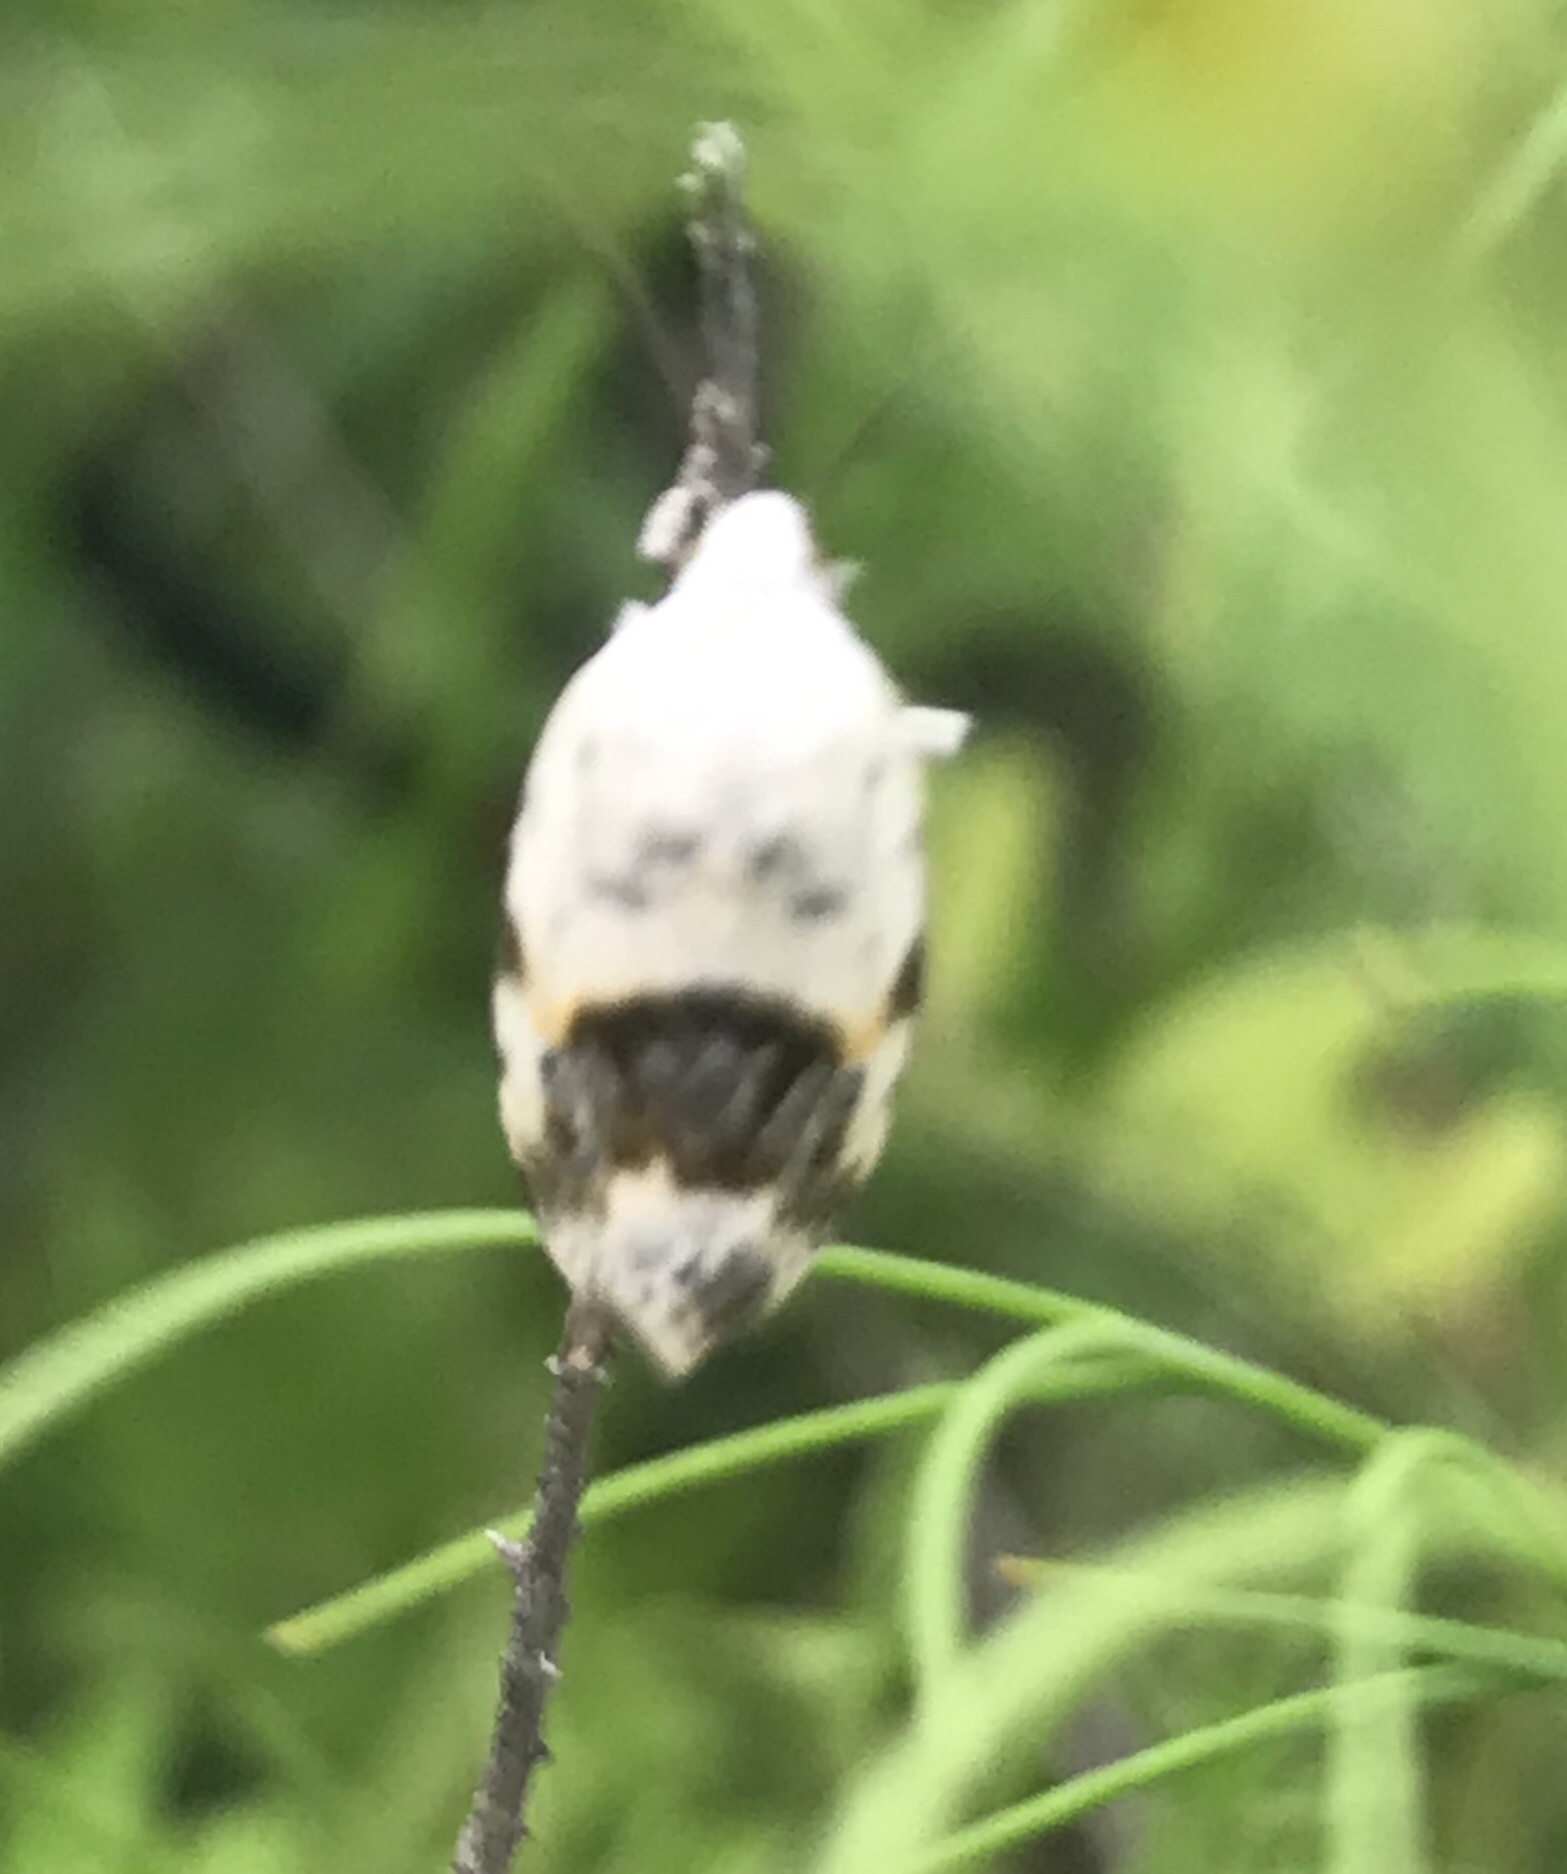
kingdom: Animalia
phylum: Arthropoda
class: Insecta
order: Lepidoptera
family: Noctuidae
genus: Acontia
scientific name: Acontia erastrioides
